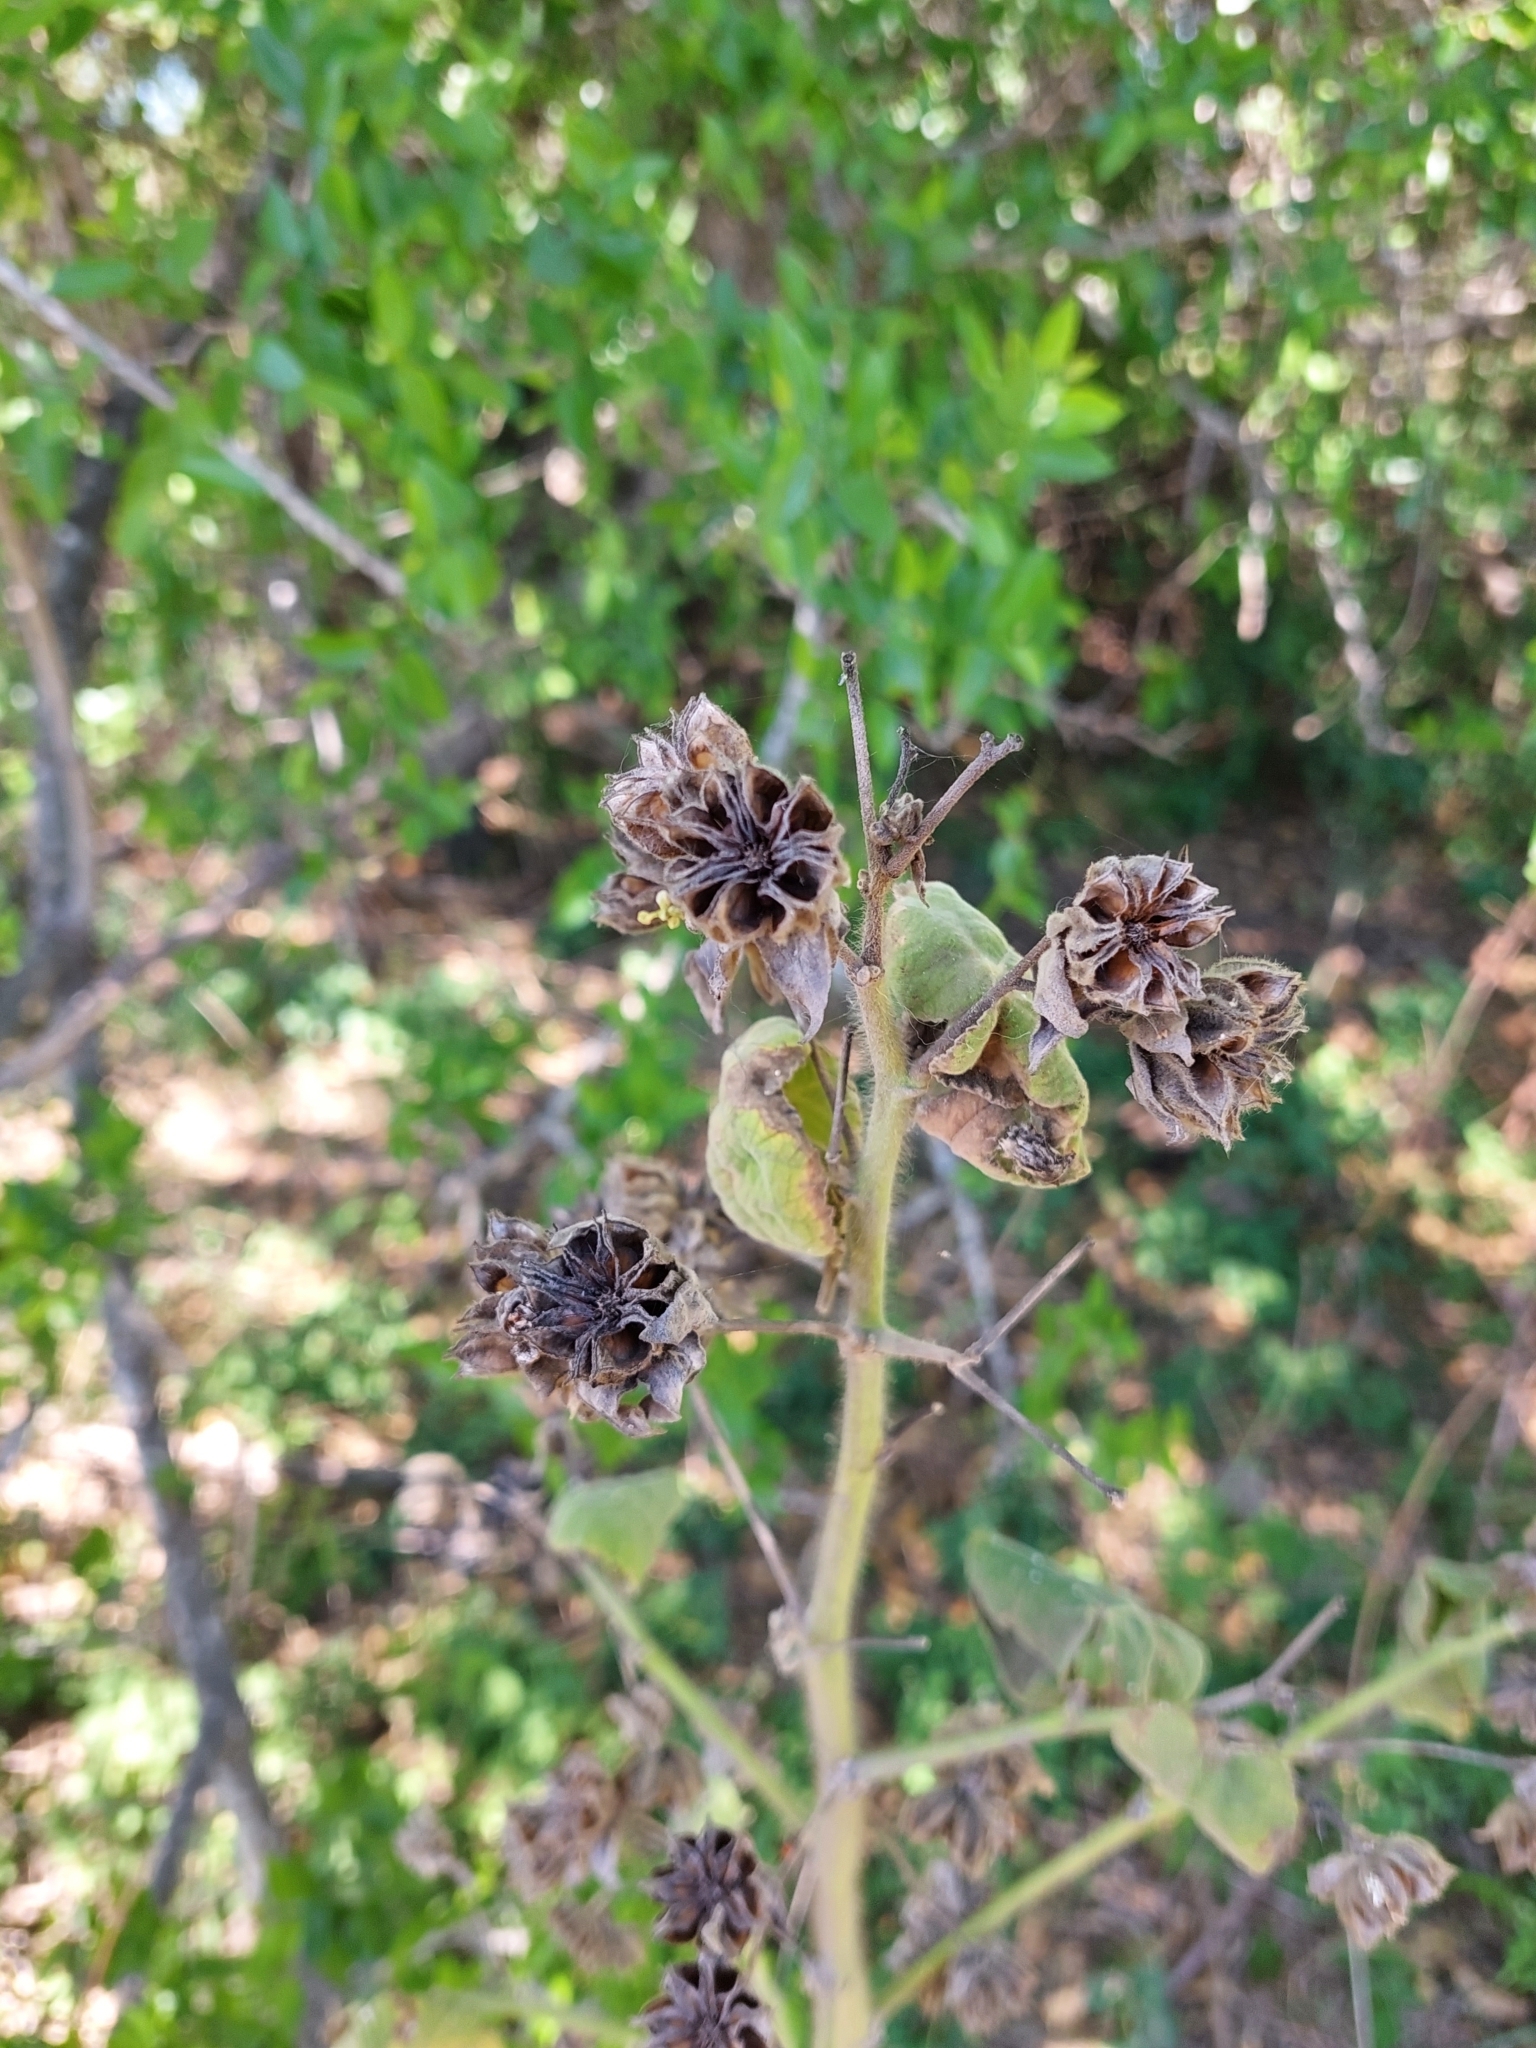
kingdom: Plantae
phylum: Tracheophyta
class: Magnoliopsida
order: Malvales
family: Malvaceae
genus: Abutilon
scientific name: Abutilon grandifolium
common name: Hairy abutilon
